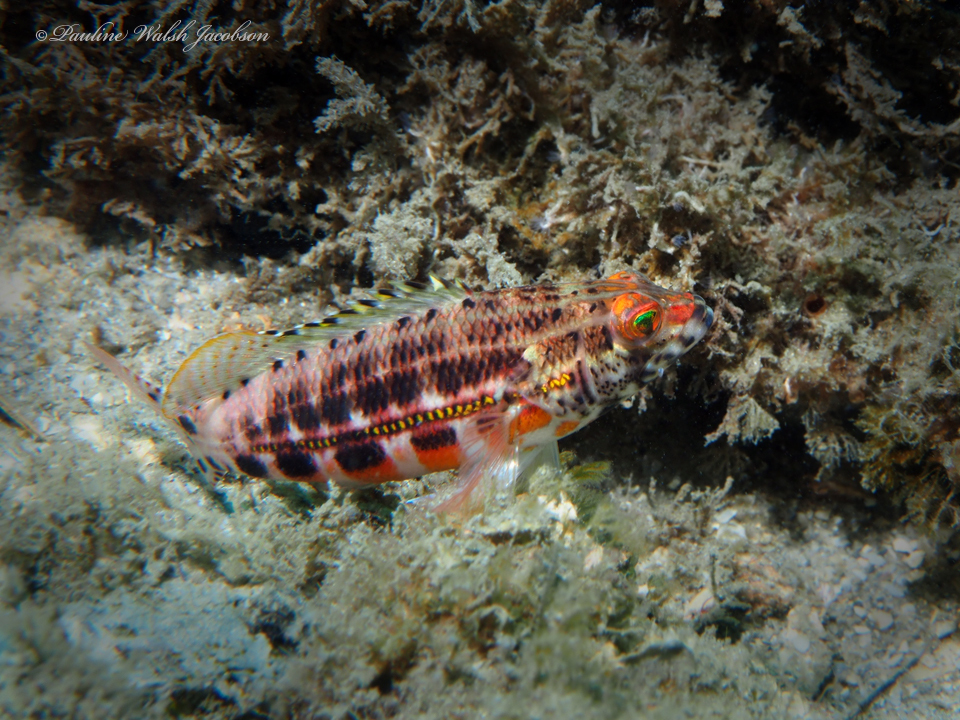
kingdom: Animalia
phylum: Chordata
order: Perciformes
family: Serranidae
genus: Serranus
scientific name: Serranus baldwini
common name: Lantern bass
